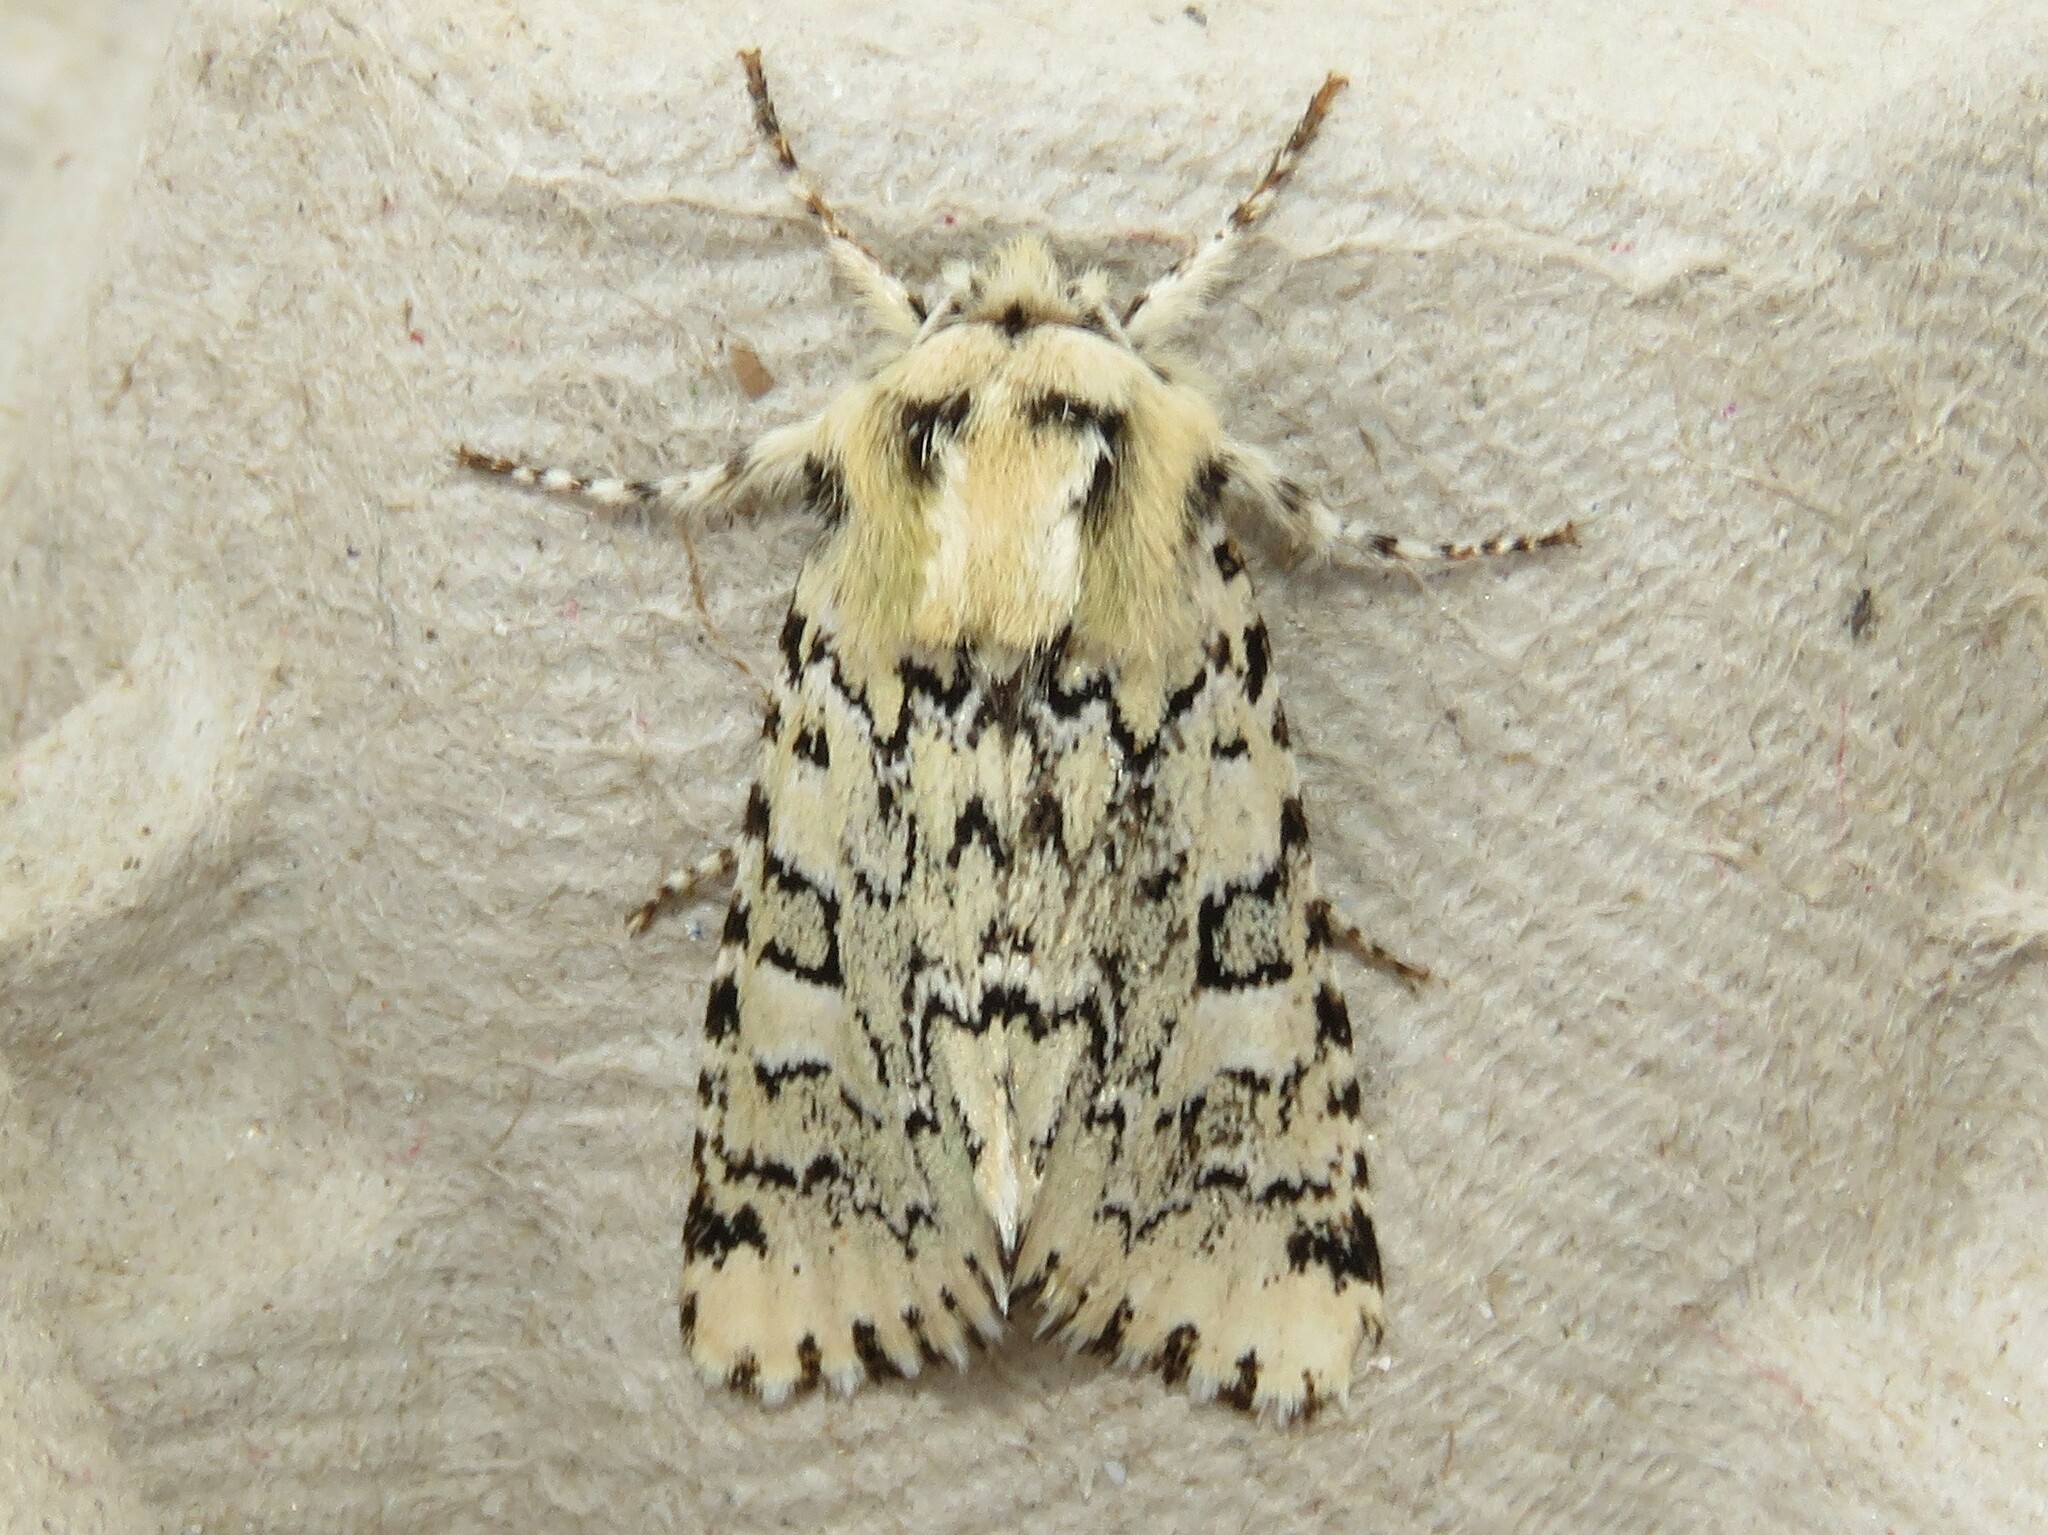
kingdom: Animalia
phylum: Arthropoda
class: Insecta
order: Lepidoptera
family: Noctuidae
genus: Feralia
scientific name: Feralia jocosa
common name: Joker
